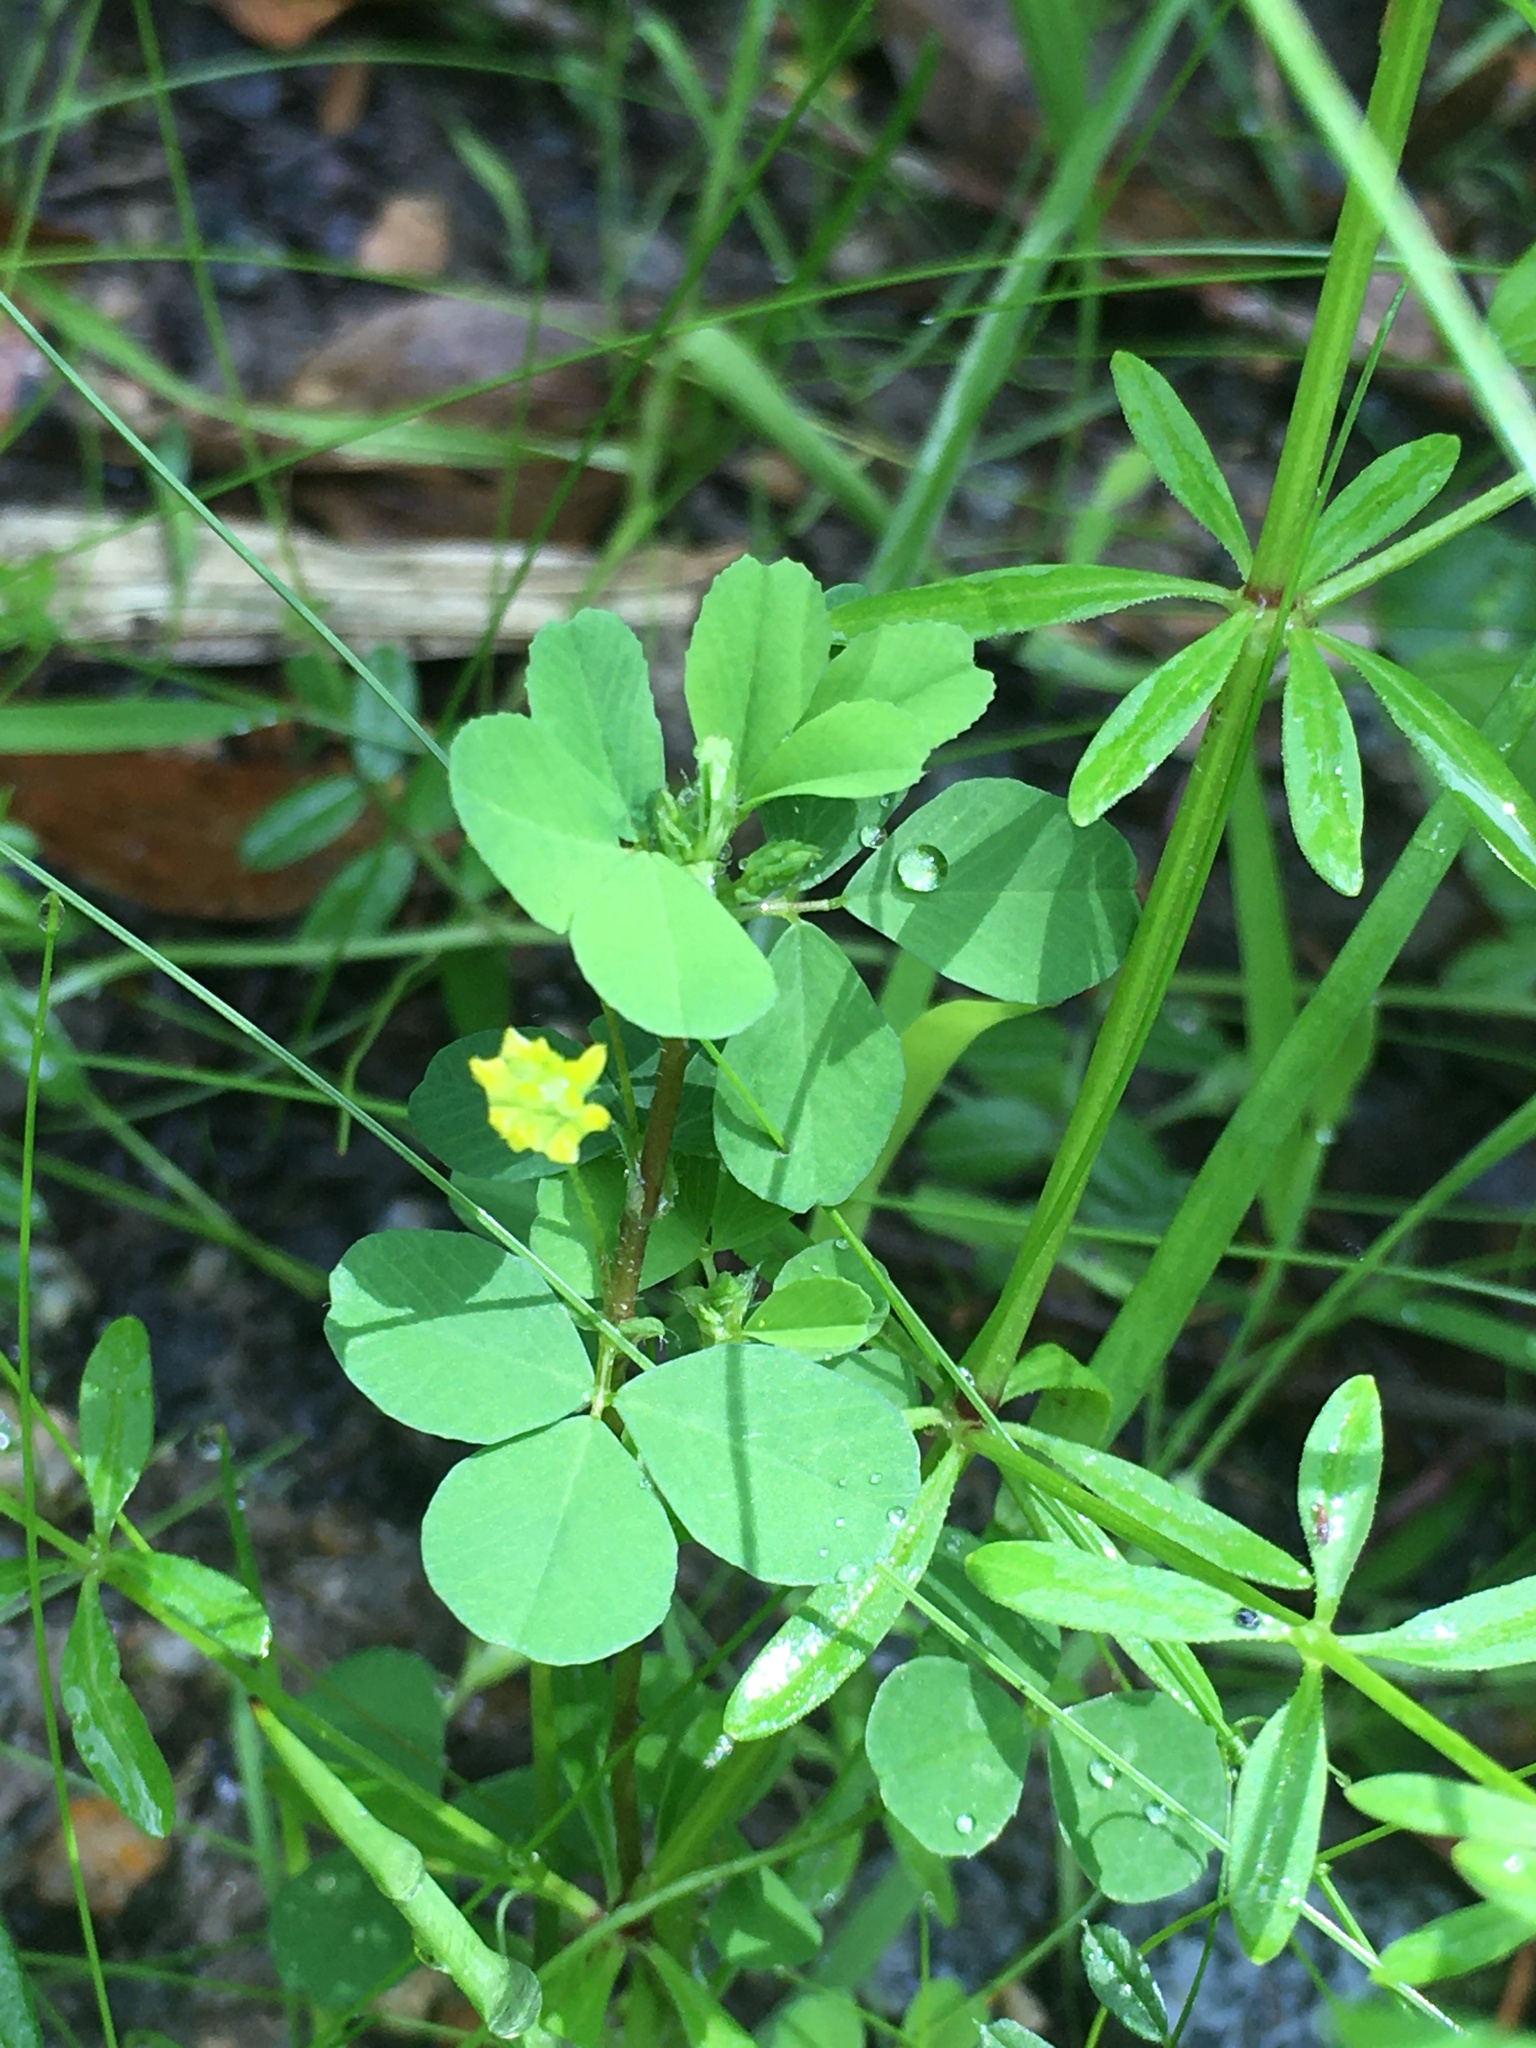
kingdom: Plantae
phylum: Tracheophyta
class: Magnoliopsida
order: Fabales
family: Fabaceae
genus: Trifolium
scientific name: Trifolium dubium
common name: Suckling clover
